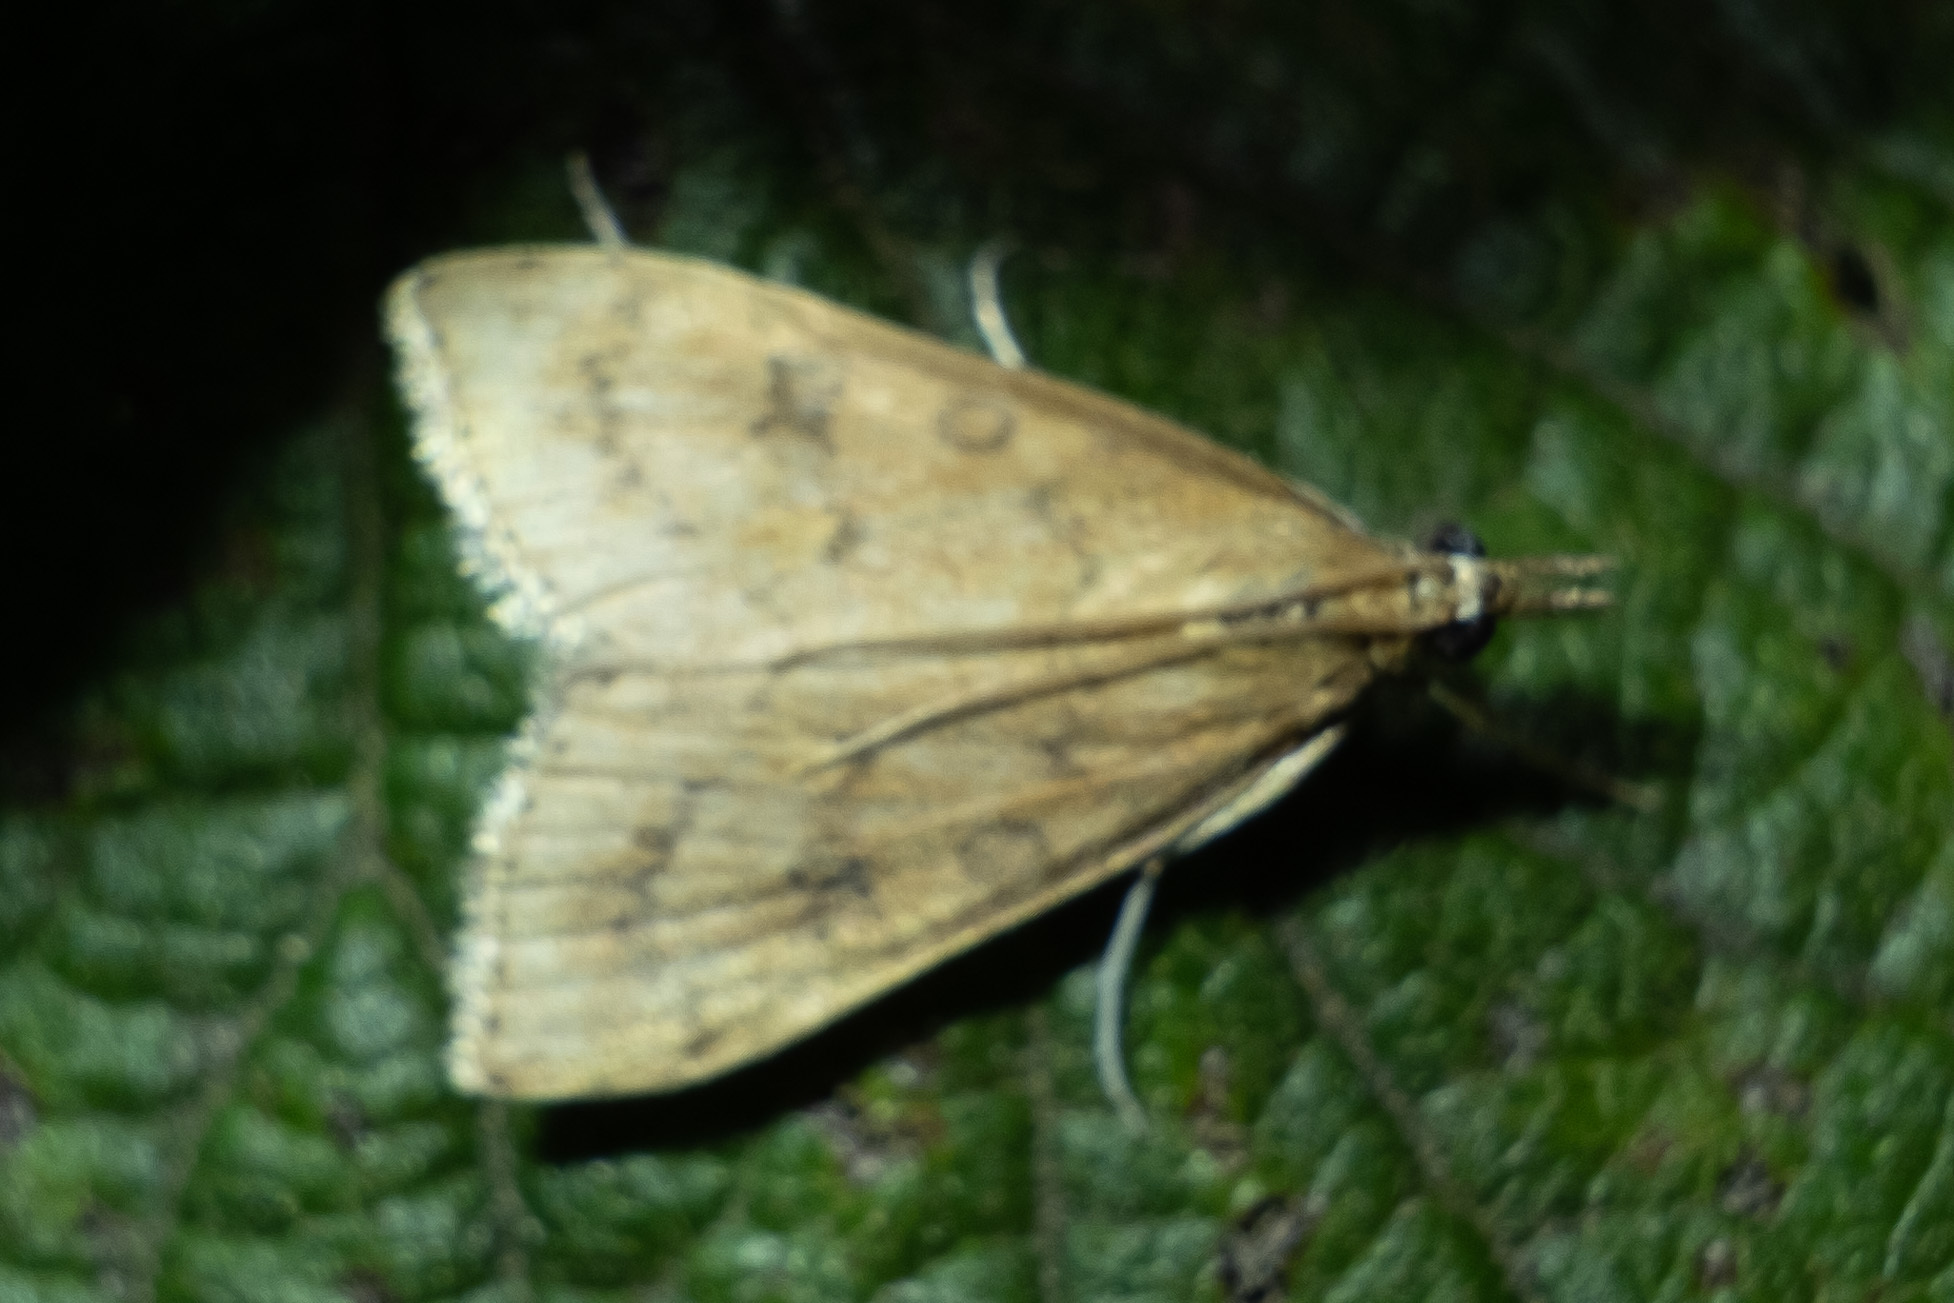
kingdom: Animalia
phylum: Arthropoda
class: Insecta
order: Lepidoptera
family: Crambidae
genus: Udea
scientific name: Udea rubigalis
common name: Celery leaftier moth
